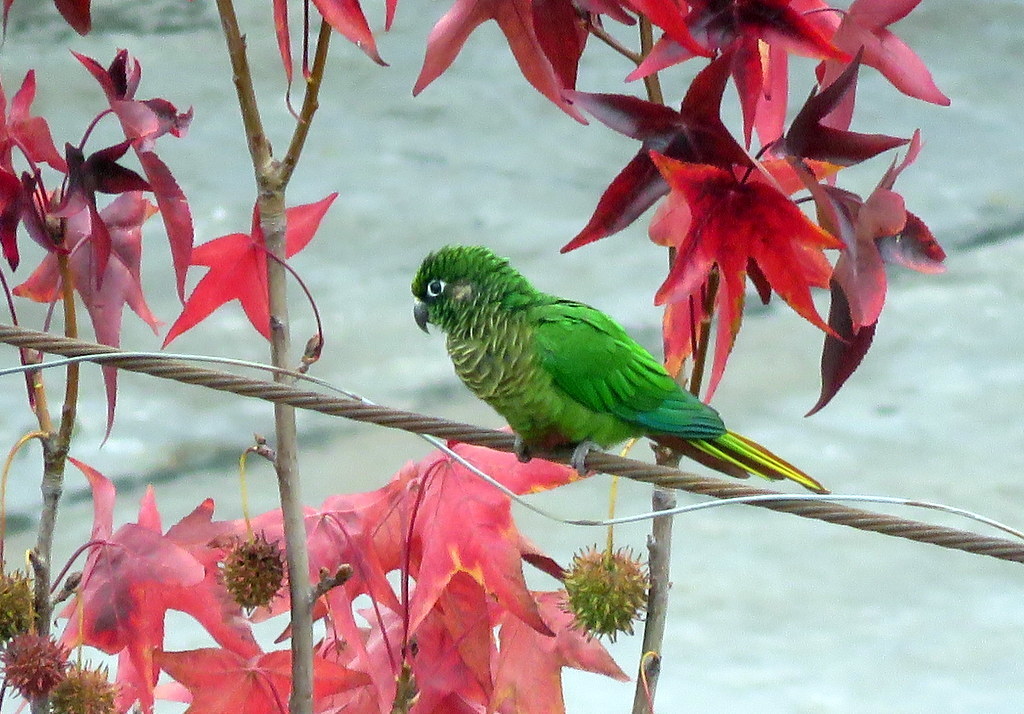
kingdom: Animalia
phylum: Chordata
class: Aves
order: Psittaciformes
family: Psittacidae
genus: Pyrrhura
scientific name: Pyrrhura frontalis
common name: Maroon-bellied parakeet
